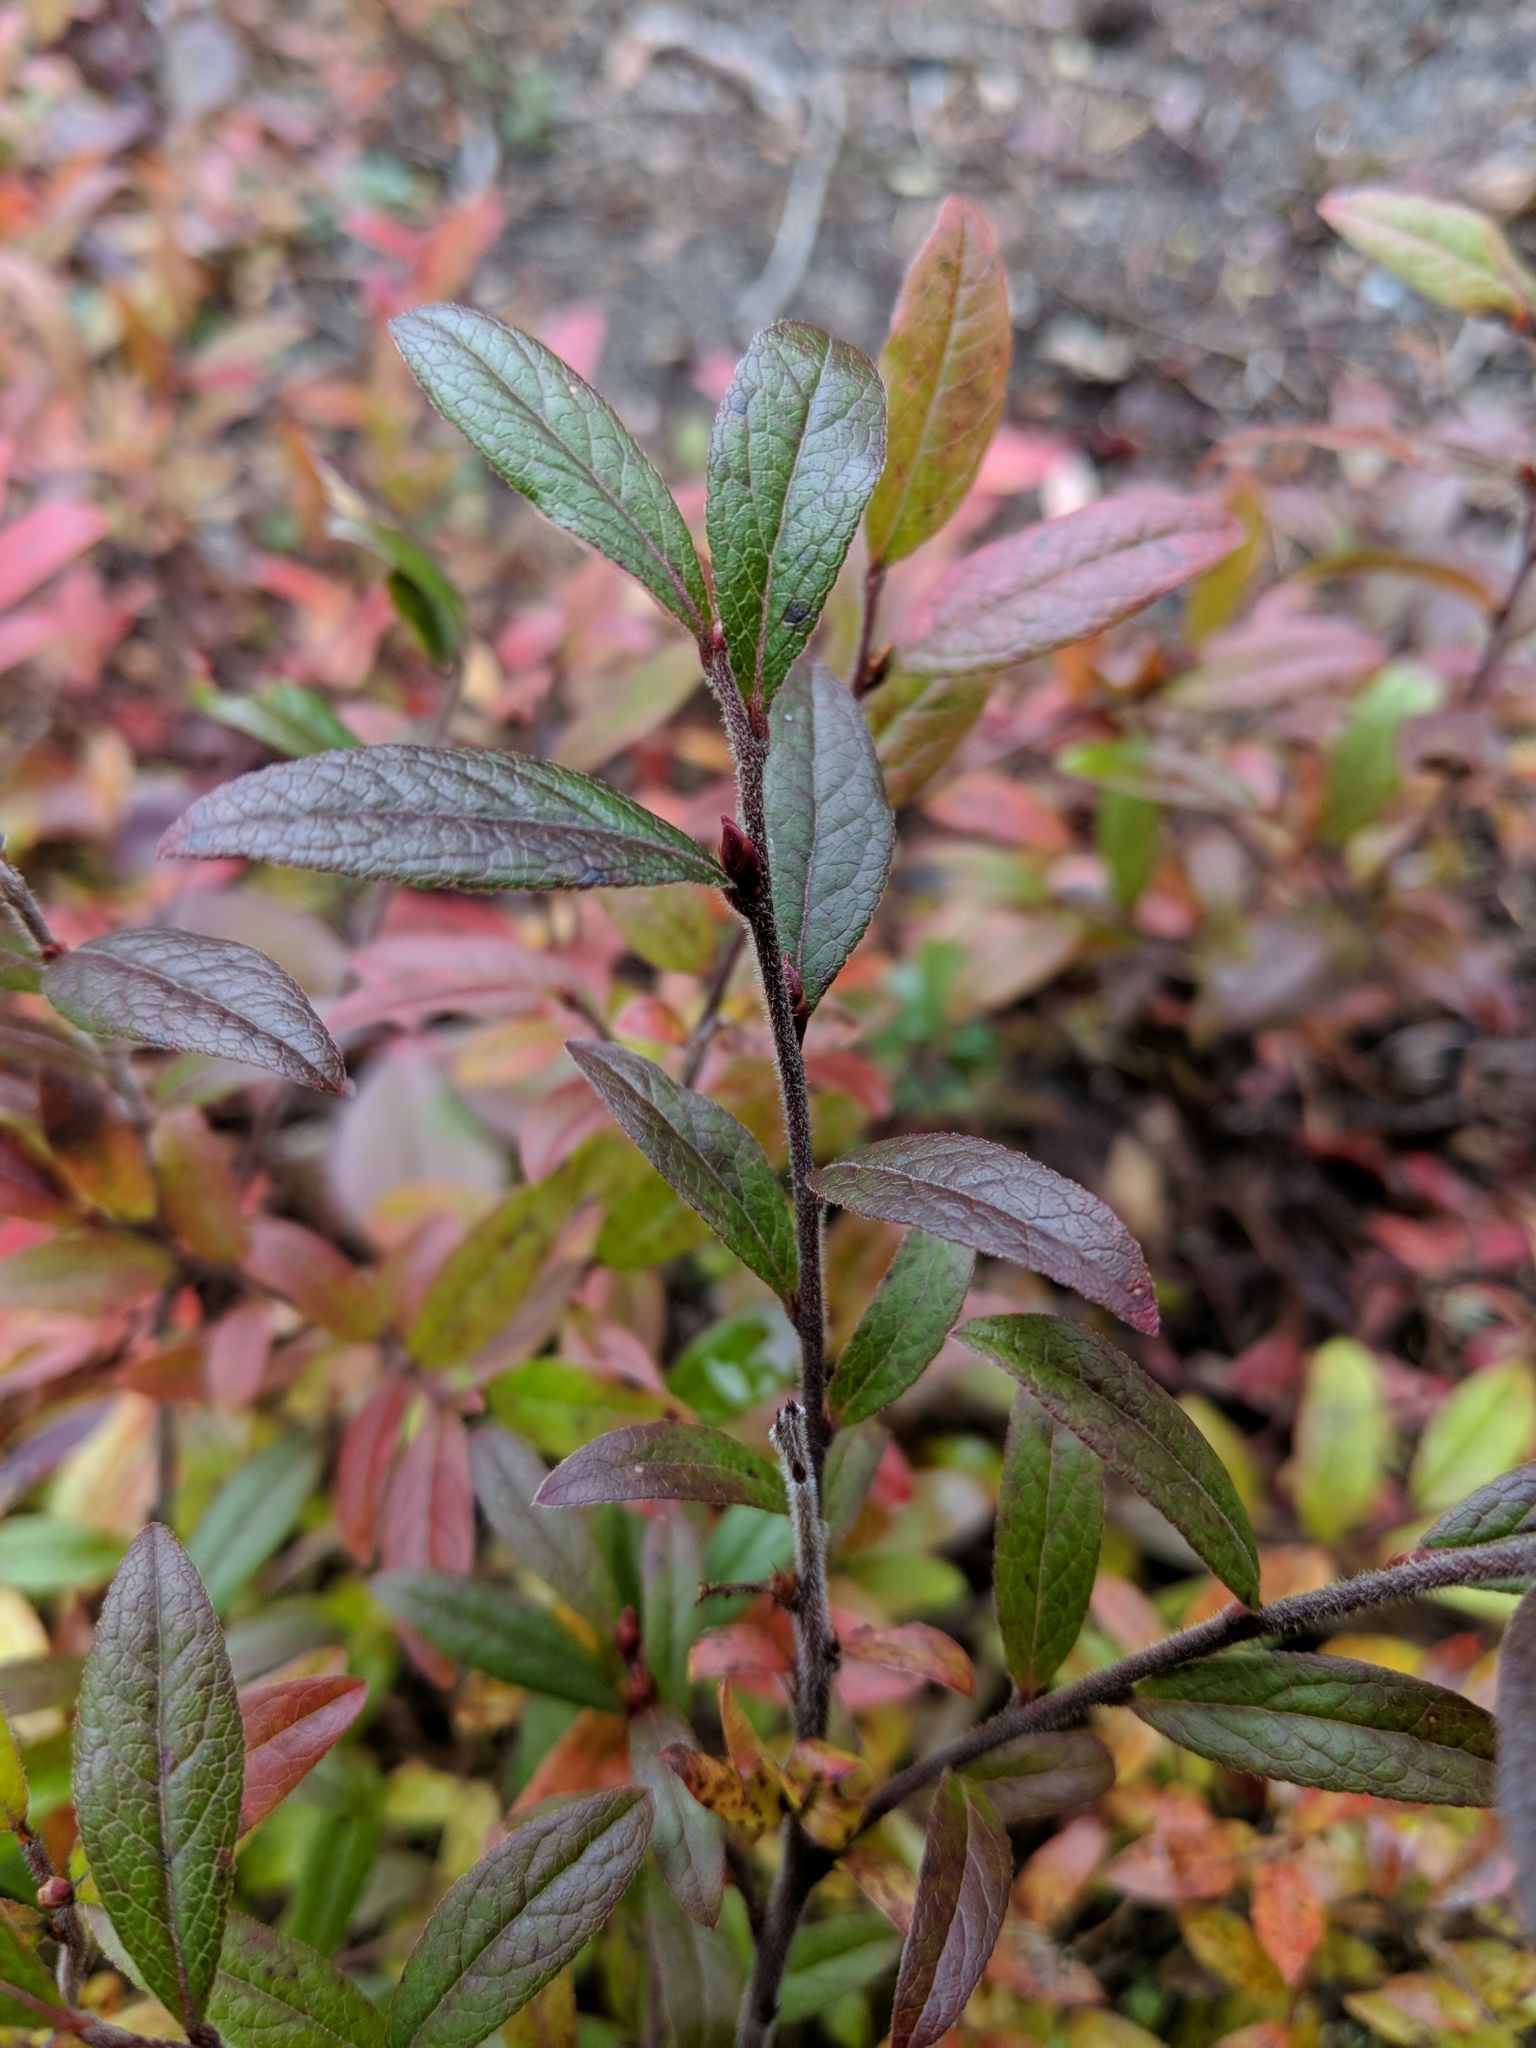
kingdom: Plantae
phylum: Tracheophyta
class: Magnoliopsida
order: Ericales
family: Ericaceae
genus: Vaccinium
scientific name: Vaccinium myrtilloides
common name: Canada blueberry
